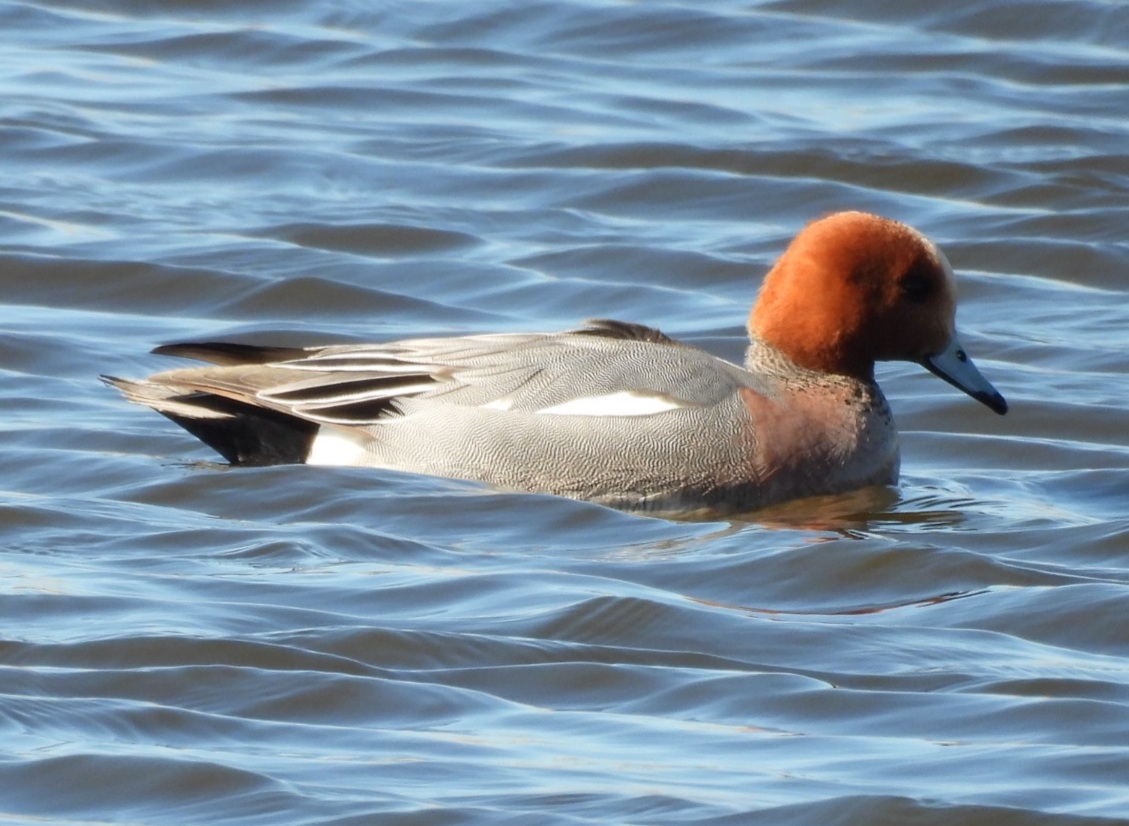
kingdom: Animalia
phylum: Chordata
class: Aves
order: Anseriformes
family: Anatidae
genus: Mareca
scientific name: Mareca penelope
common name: Eurasian wigeon
